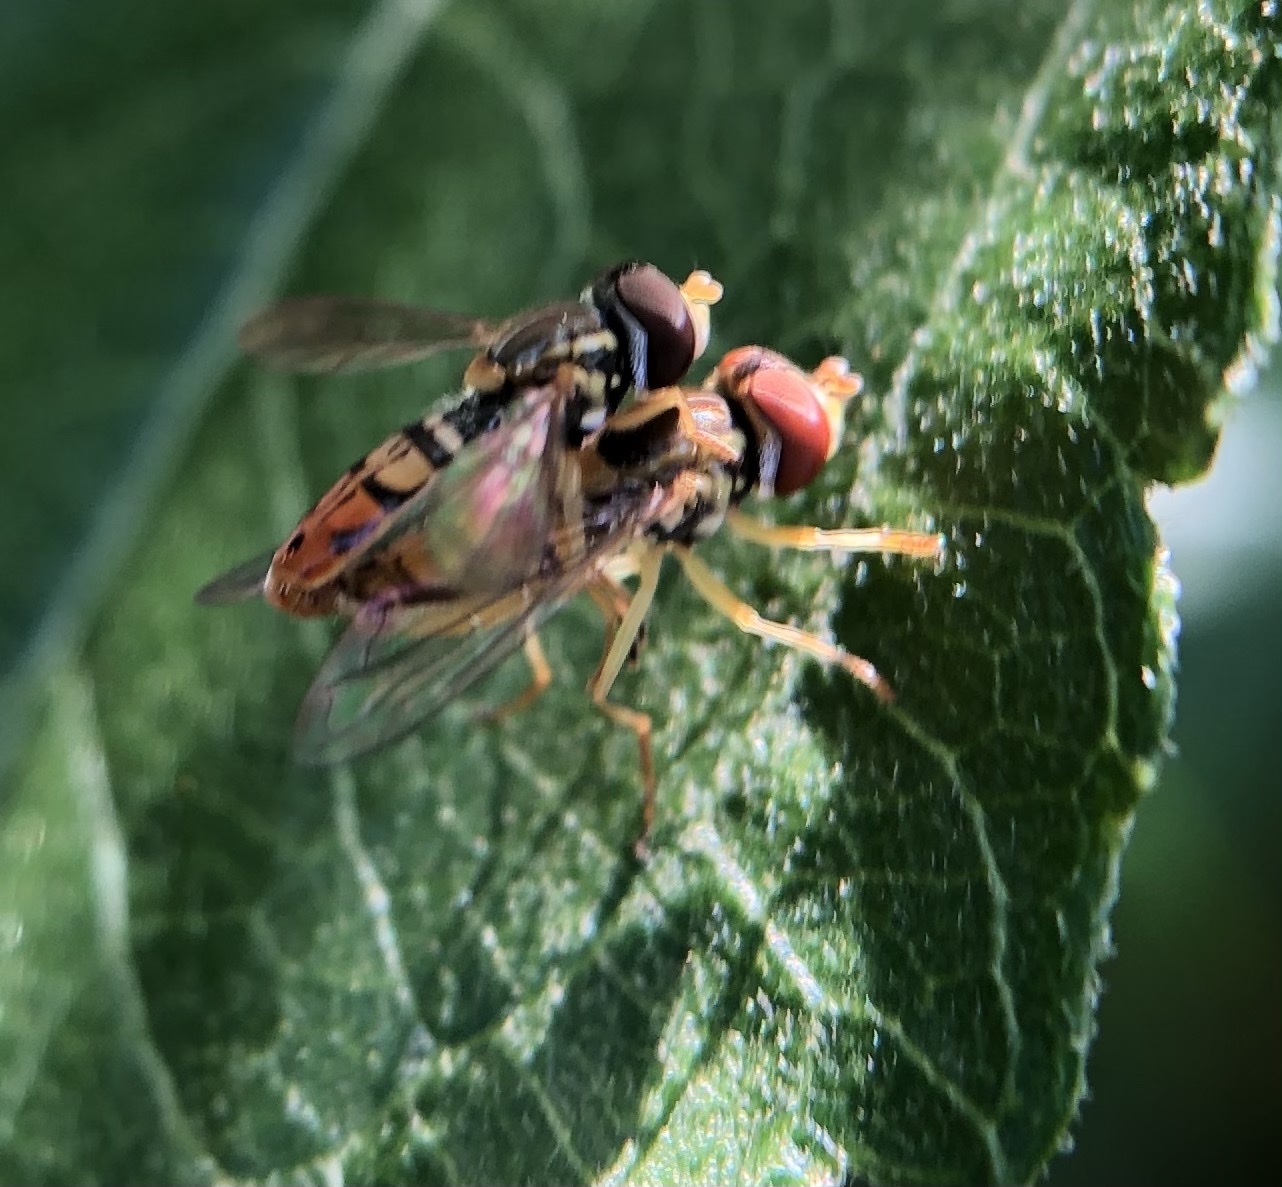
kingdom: Animalia
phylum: Arthropoda
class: Insecta
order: Diptera
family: Syrphidae
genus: Toxomerus
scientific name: Toxomerus marginatus
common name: Syrphid fly
